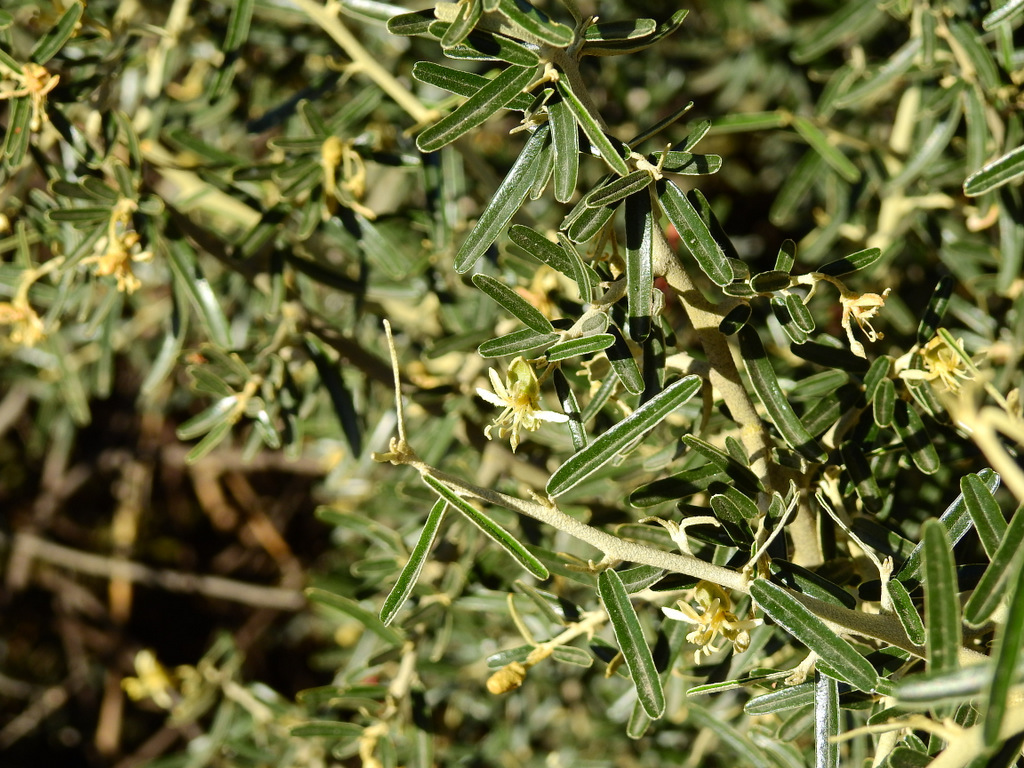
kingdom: Plantae
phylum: Tracheophyta
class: Magnoliopsida
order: Brassicales
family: Capparaceae
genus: Atamisquea
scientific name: Atamisquea emarginata
